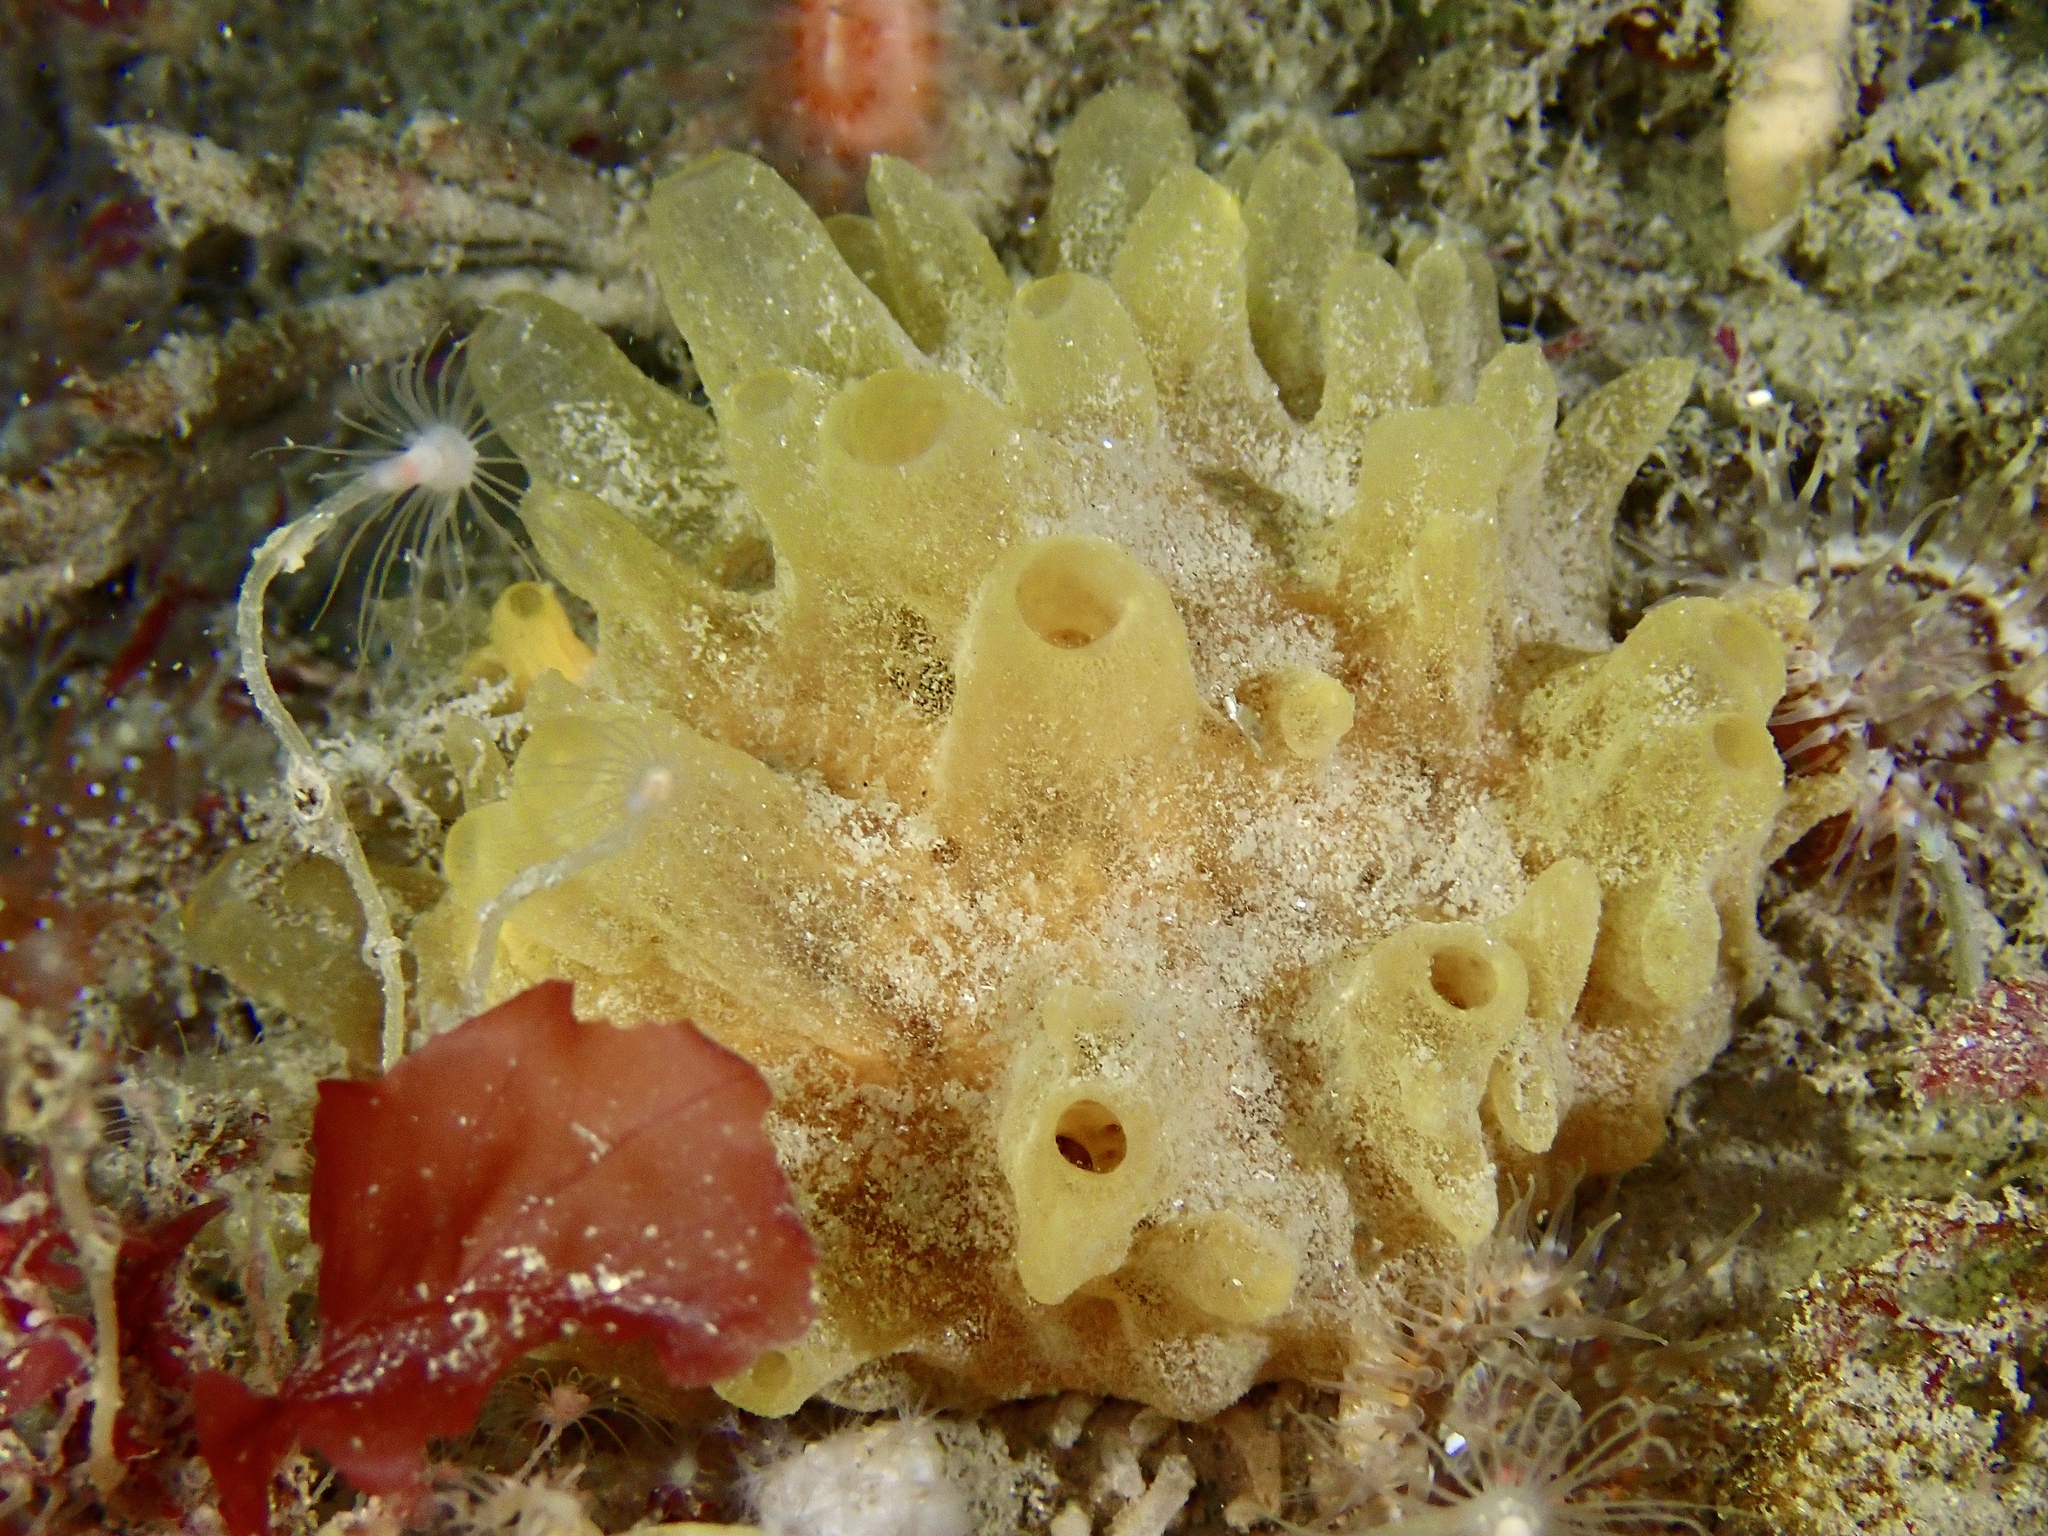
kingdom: Animalia
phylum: Porifera
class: Demospongiae
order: Polymastiida
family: Polymastiidae
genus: Polymastia
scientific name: Polymastia boletiformis
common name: Massive horny sponge
